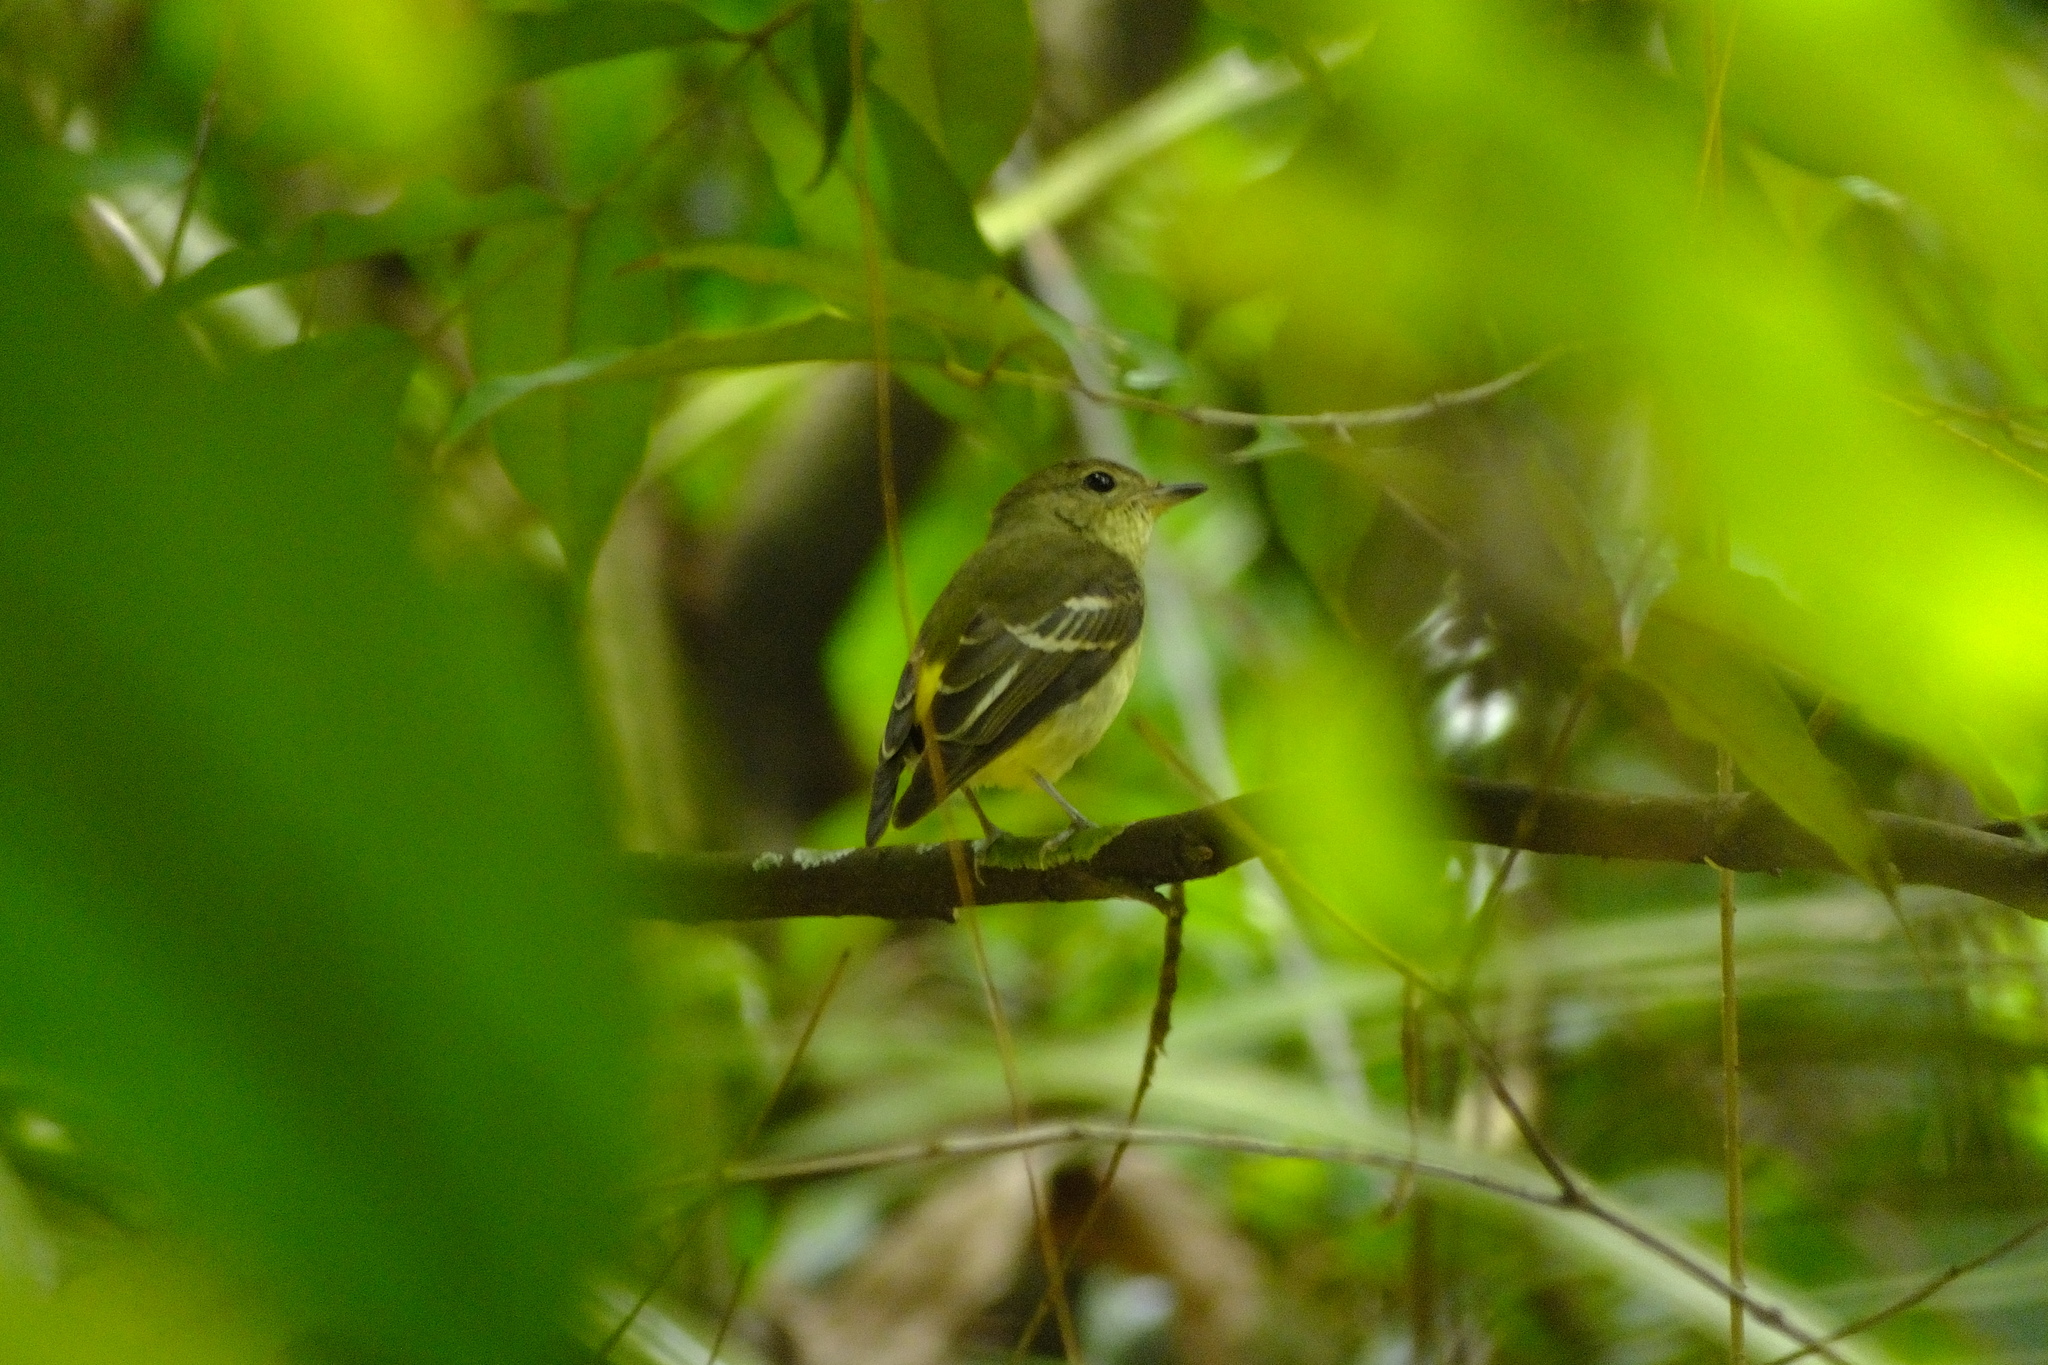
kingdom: Animalia
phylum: Chordata
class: Aves
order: Passeriformes
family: Muscicapidae
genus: Ficedula
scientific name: Ficedula zanthopygia
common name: Yellow-rumped flycatcher
